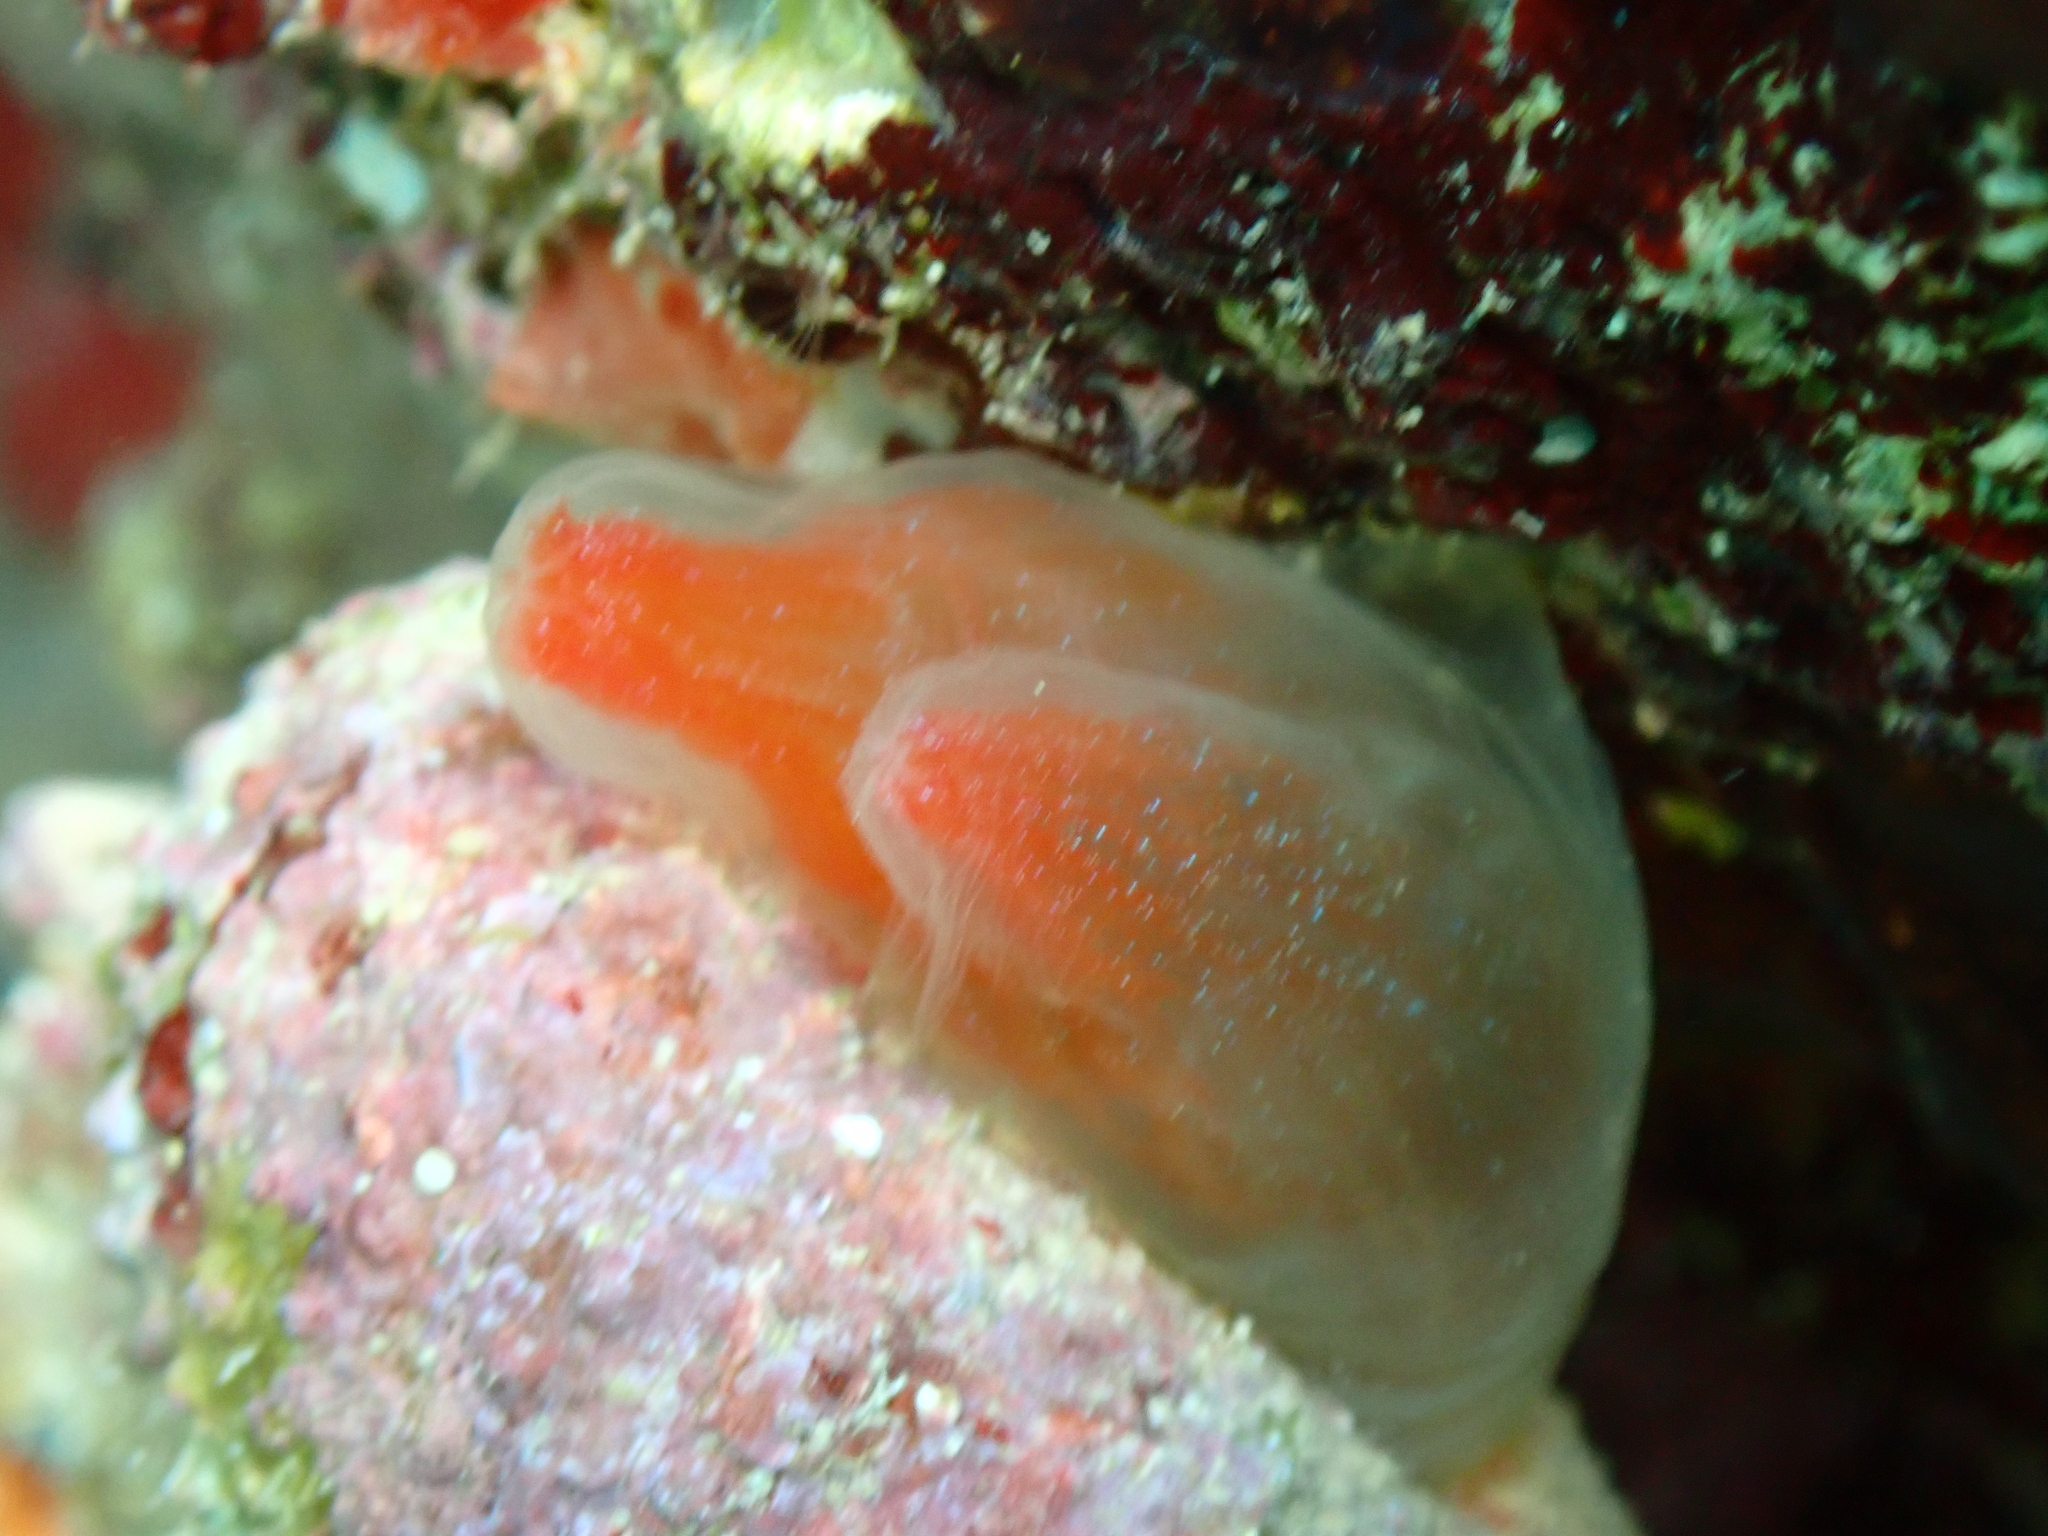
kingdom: Animalia
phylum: Chordata
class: Ascidiacea
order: Phlebobranchia
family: Cionidae
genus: Ciona
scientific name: Ciona roulii
